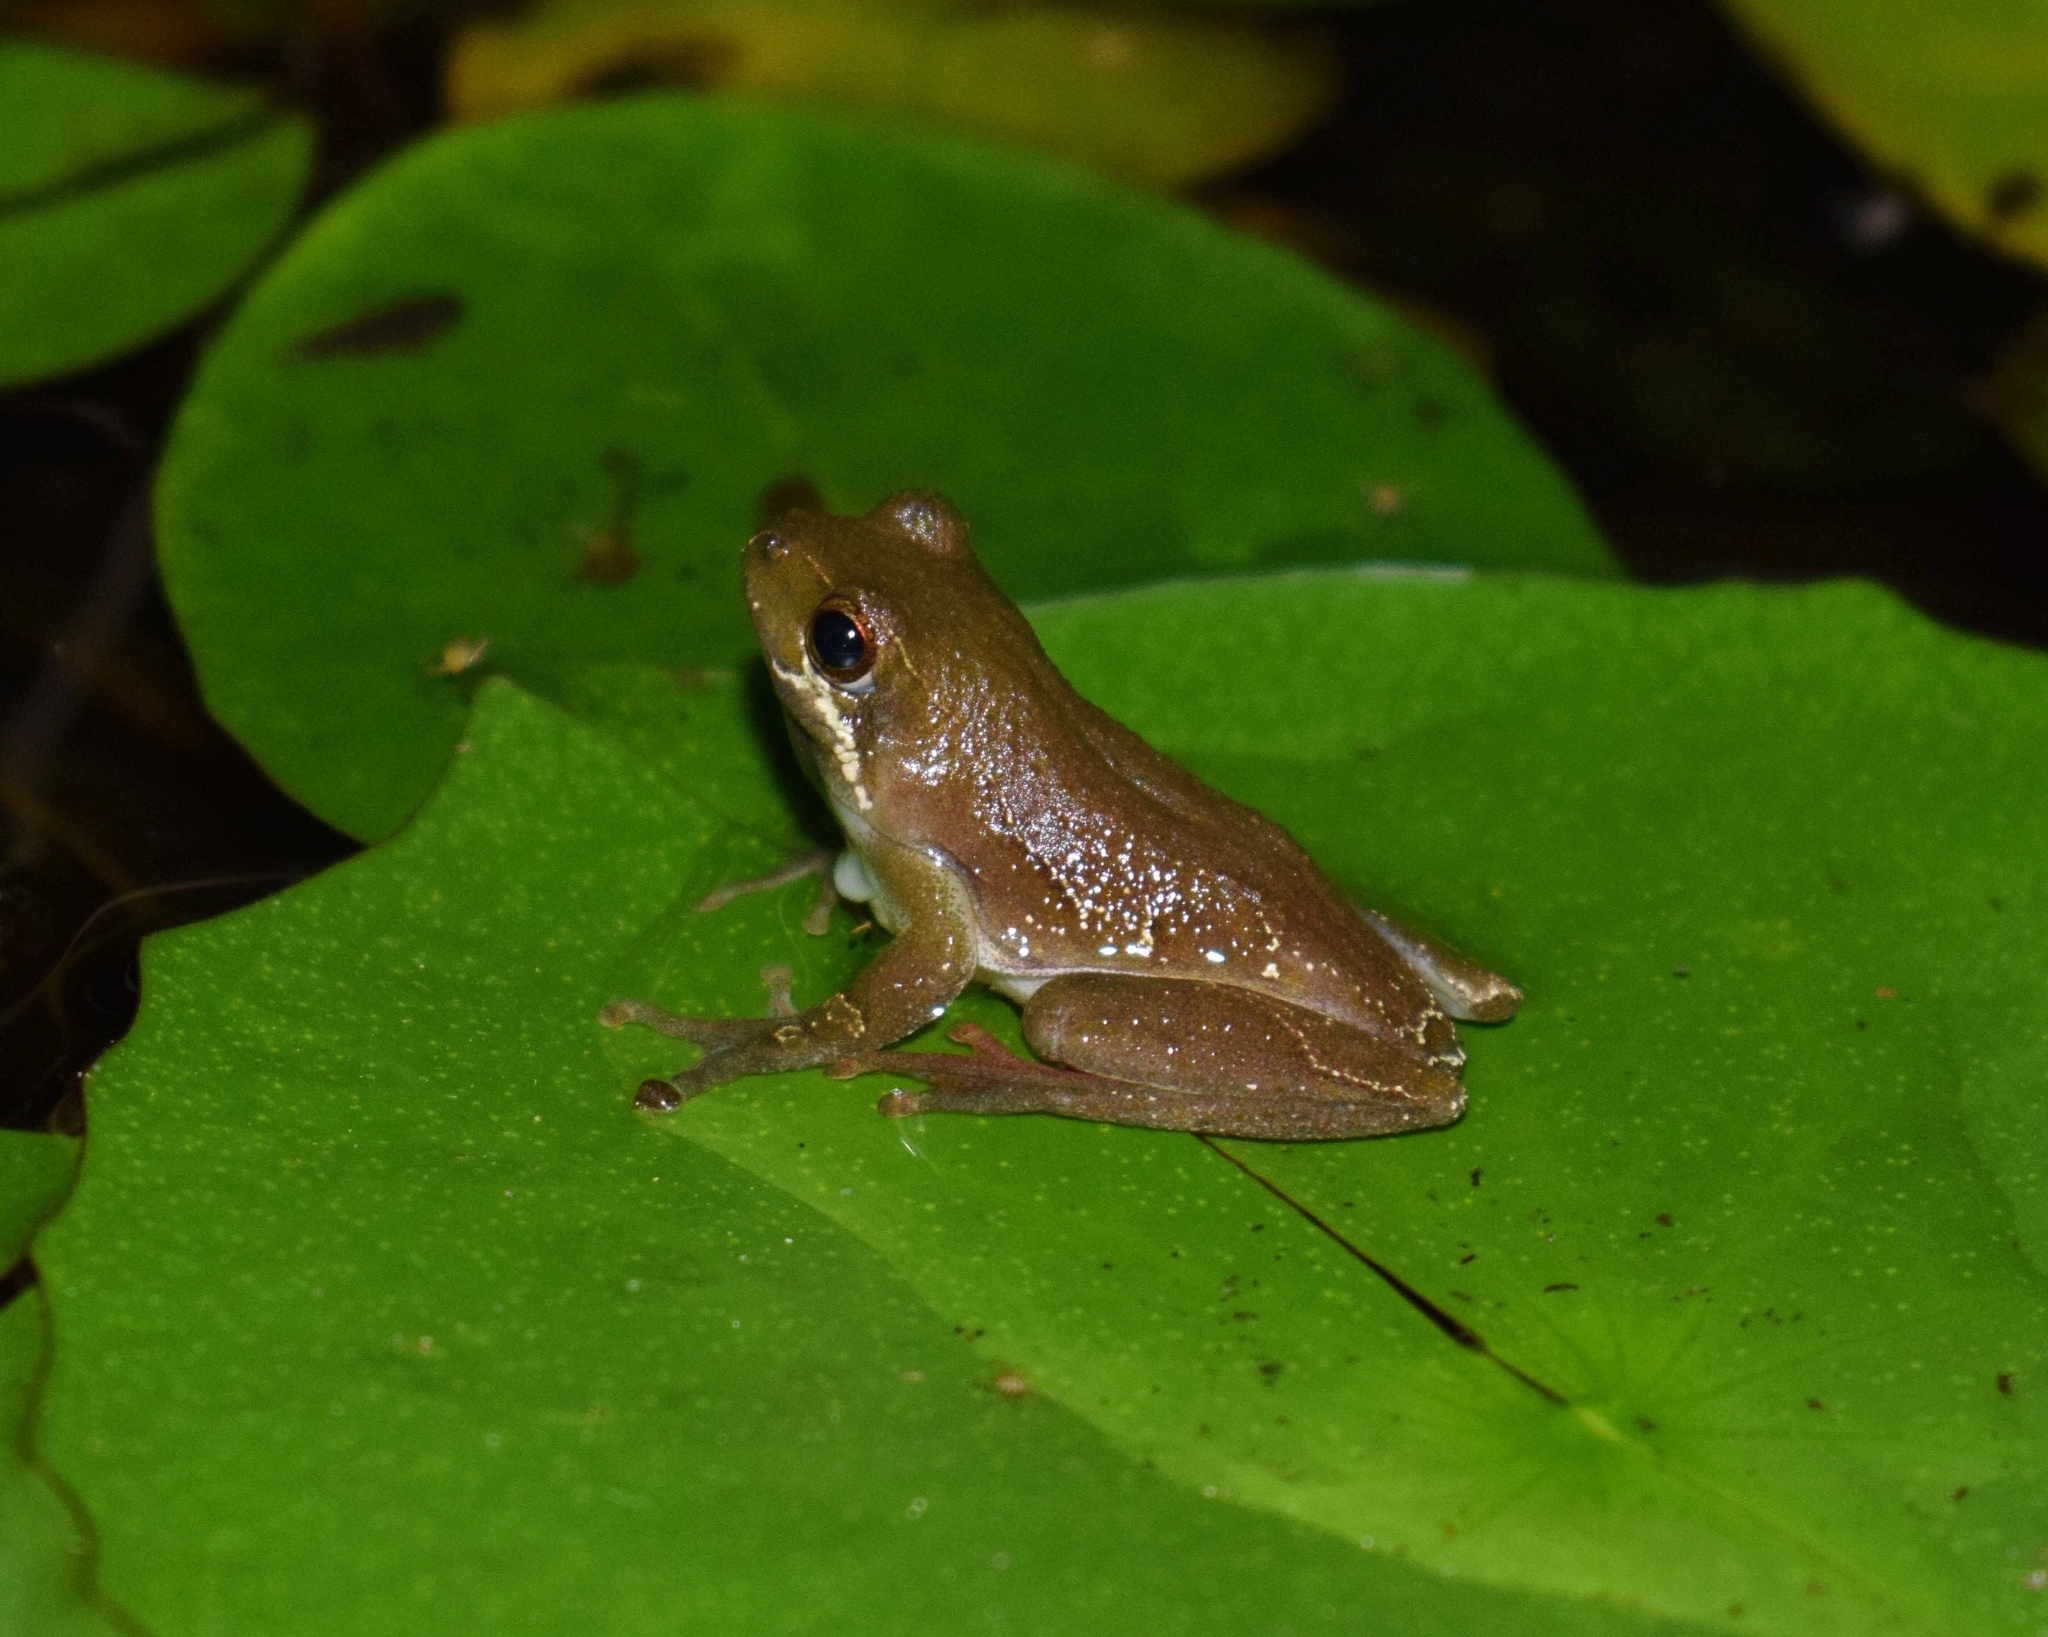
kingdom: Animalia
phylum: Chordata
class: Amphibia
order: Anura
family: Hyperoliidae
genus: Hyperolius
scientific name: Hyperolius marmoratus
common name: Painted reed frog
